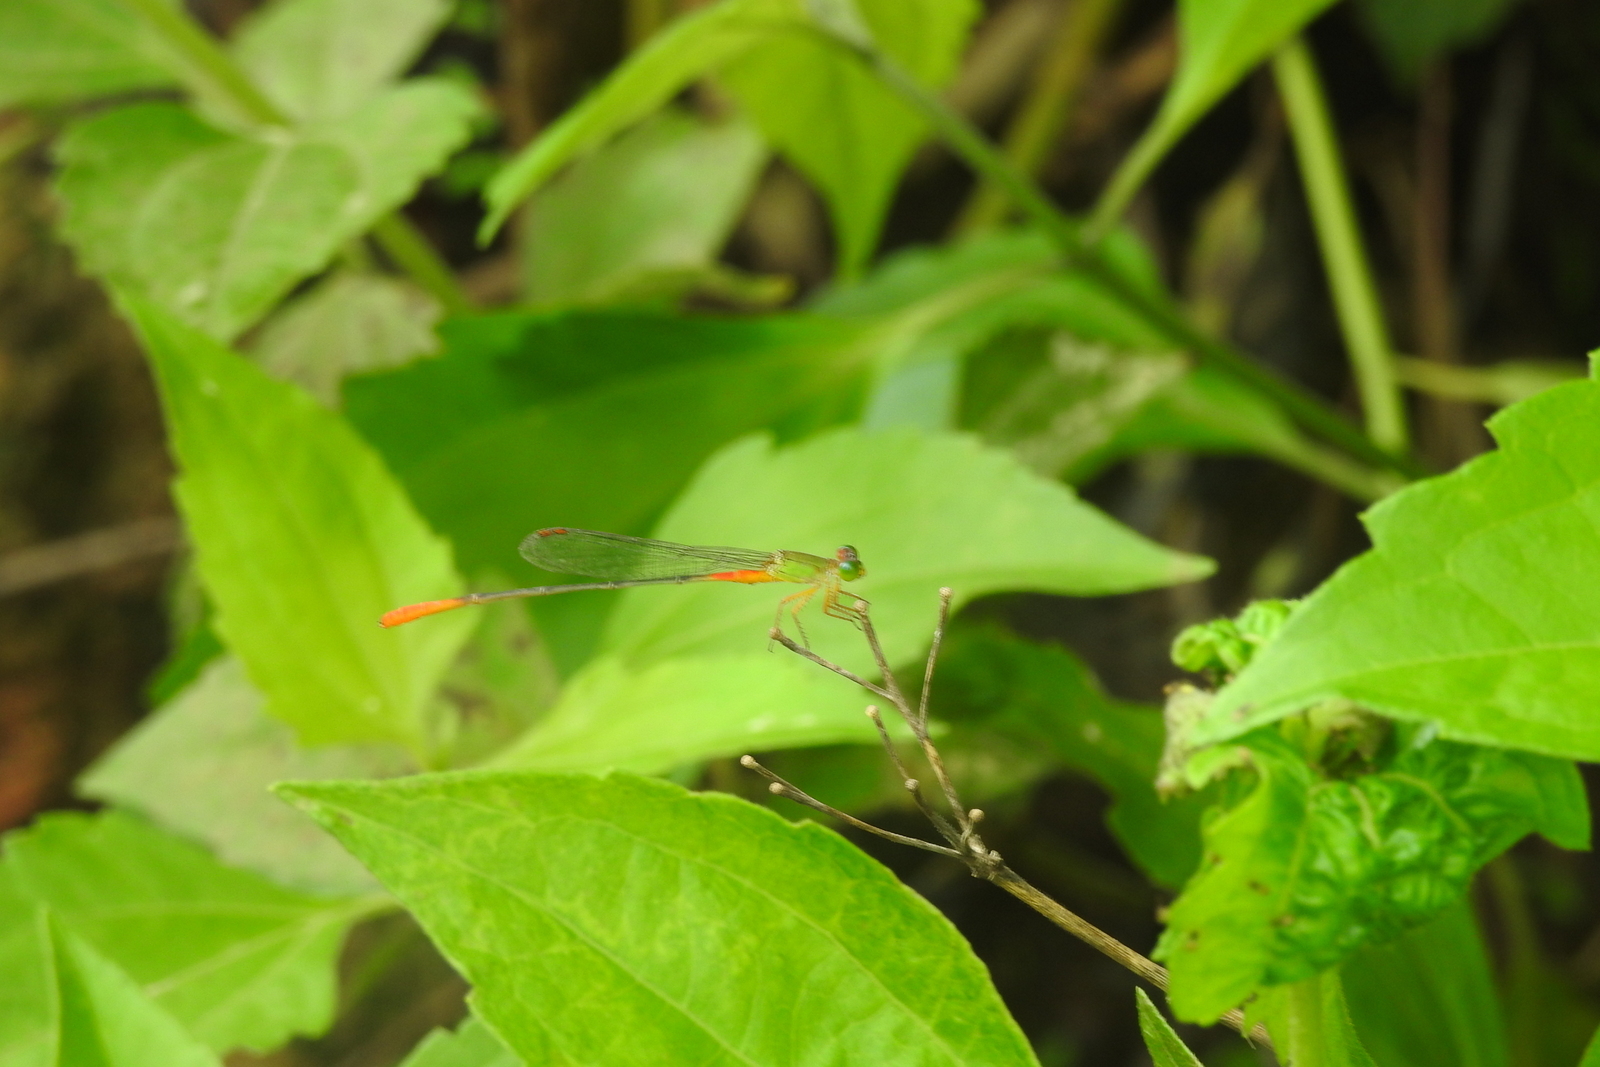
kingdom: Animalia
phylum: Arthropoda
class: Insecta
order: Odonata
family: Coenagrionidae
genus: Ceriagrion
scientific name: Ceriagrion cerinorubellum
